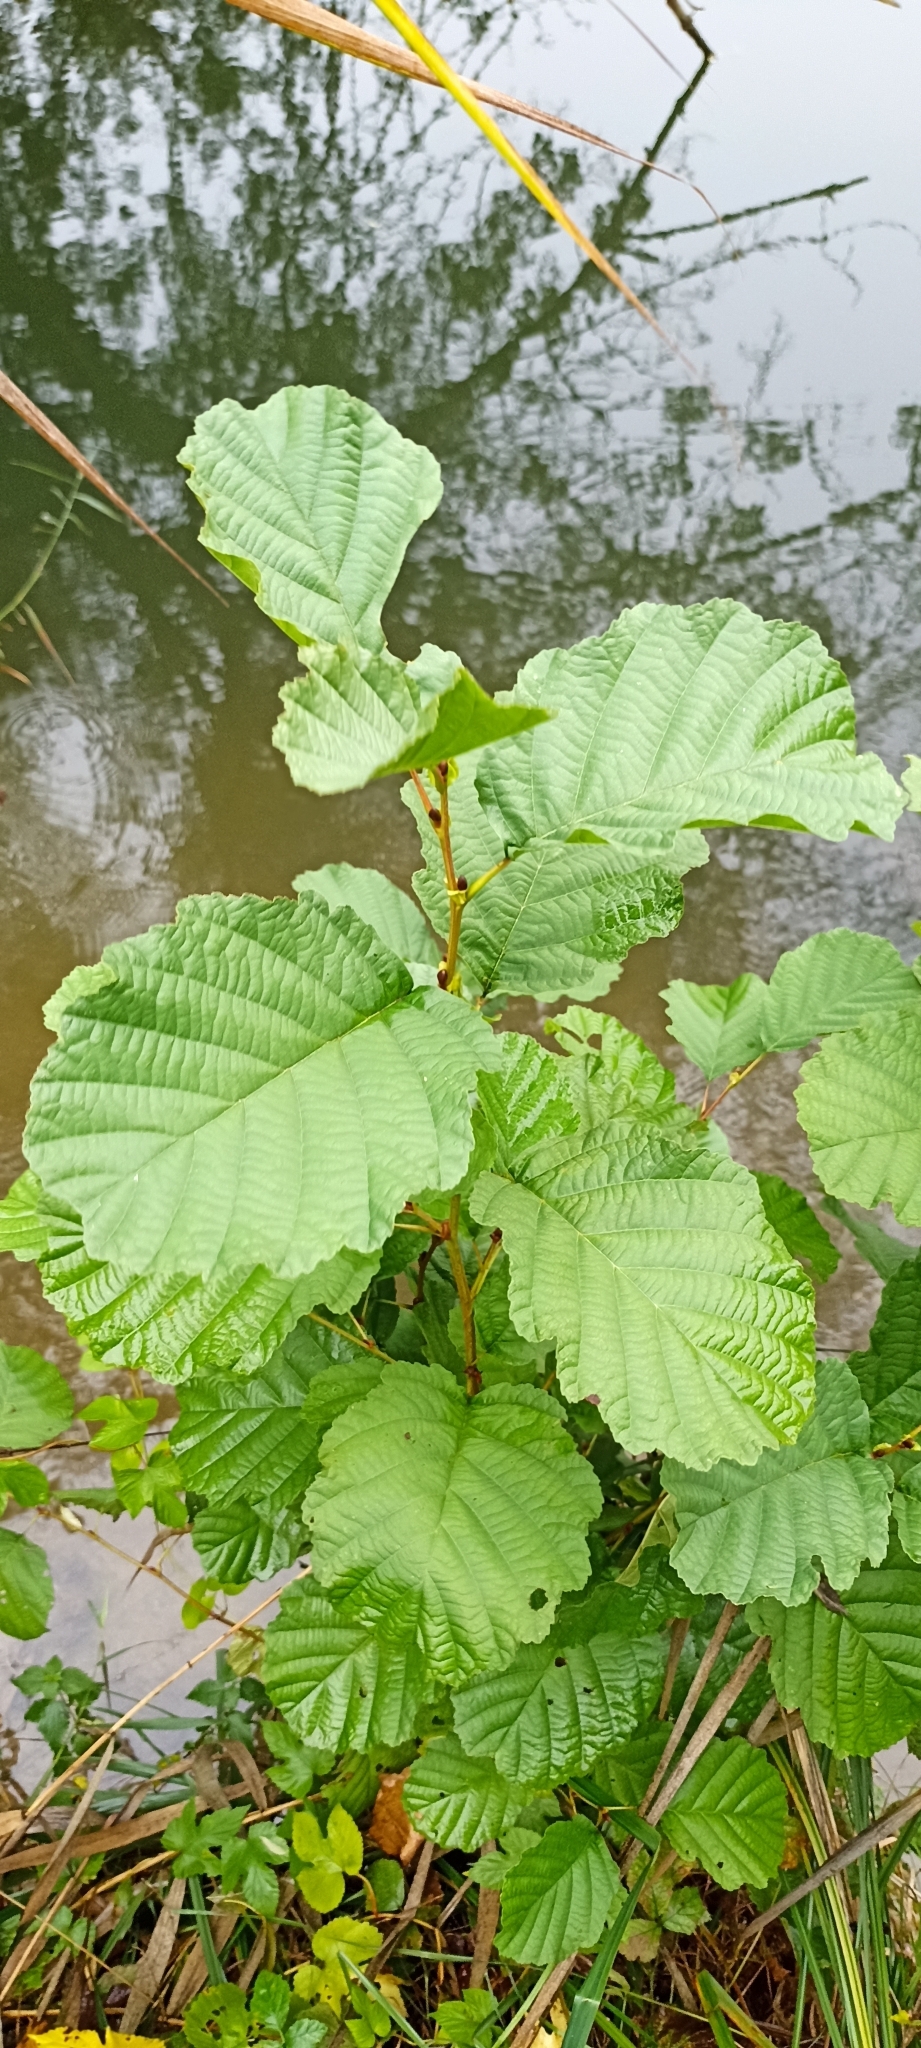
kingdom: Plantae
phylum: Tracheophyta
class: Magnoliopsida
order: Fagales
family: Betulaceae
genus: Alnus
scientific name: Alnus glutinosa
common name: Black alder
